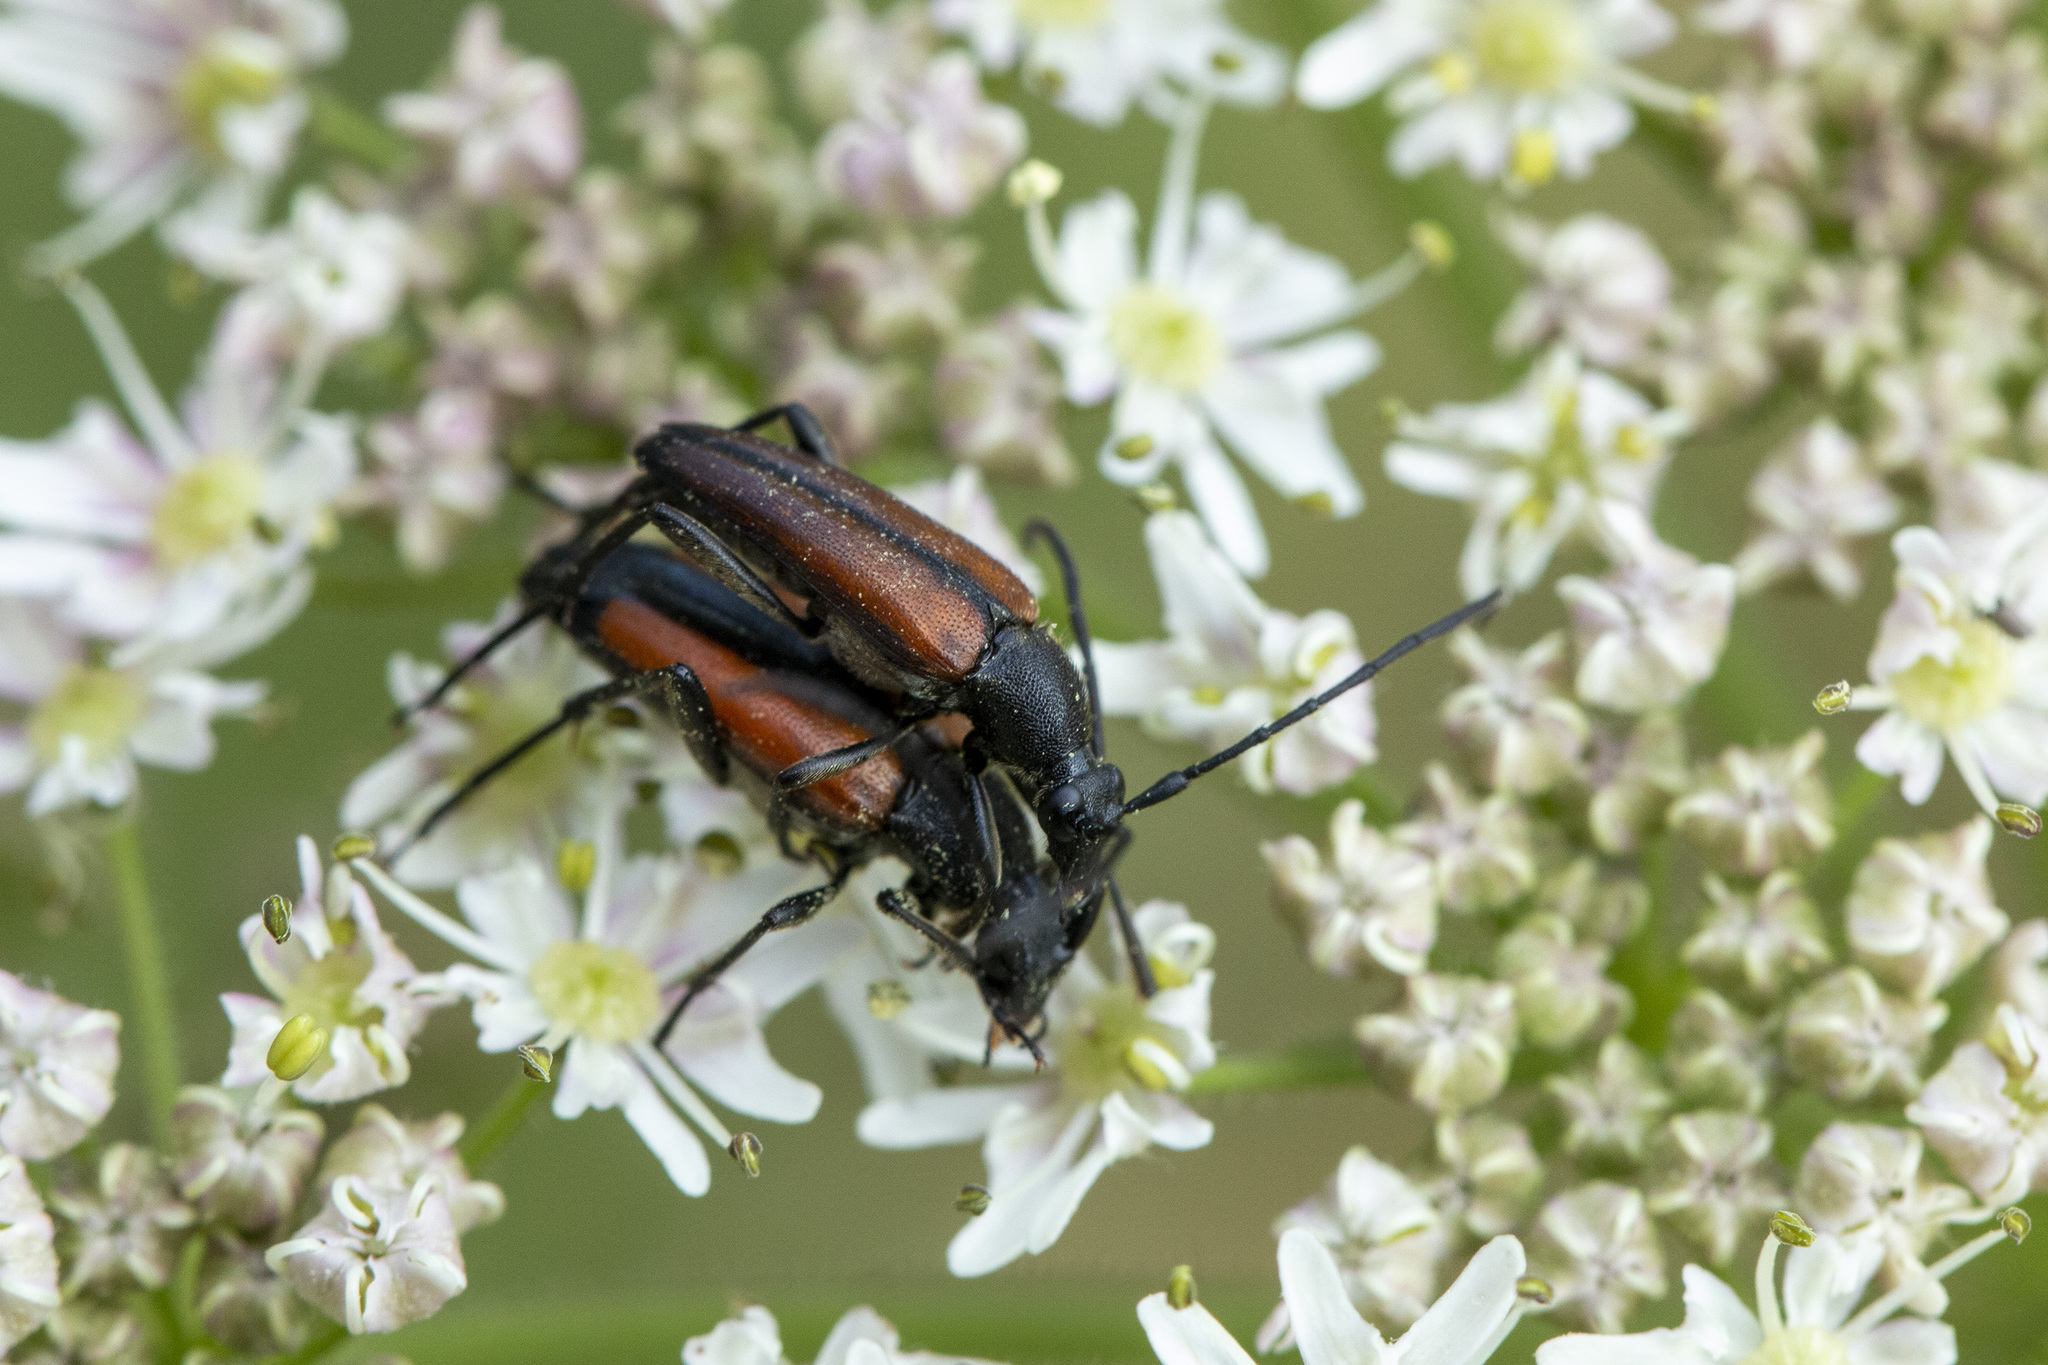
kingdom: Animalia
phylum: Arthropoda
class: Insecta
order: Coleoptera
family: Cerambycidae
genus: Stenurella
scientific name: Stenurella melanura
